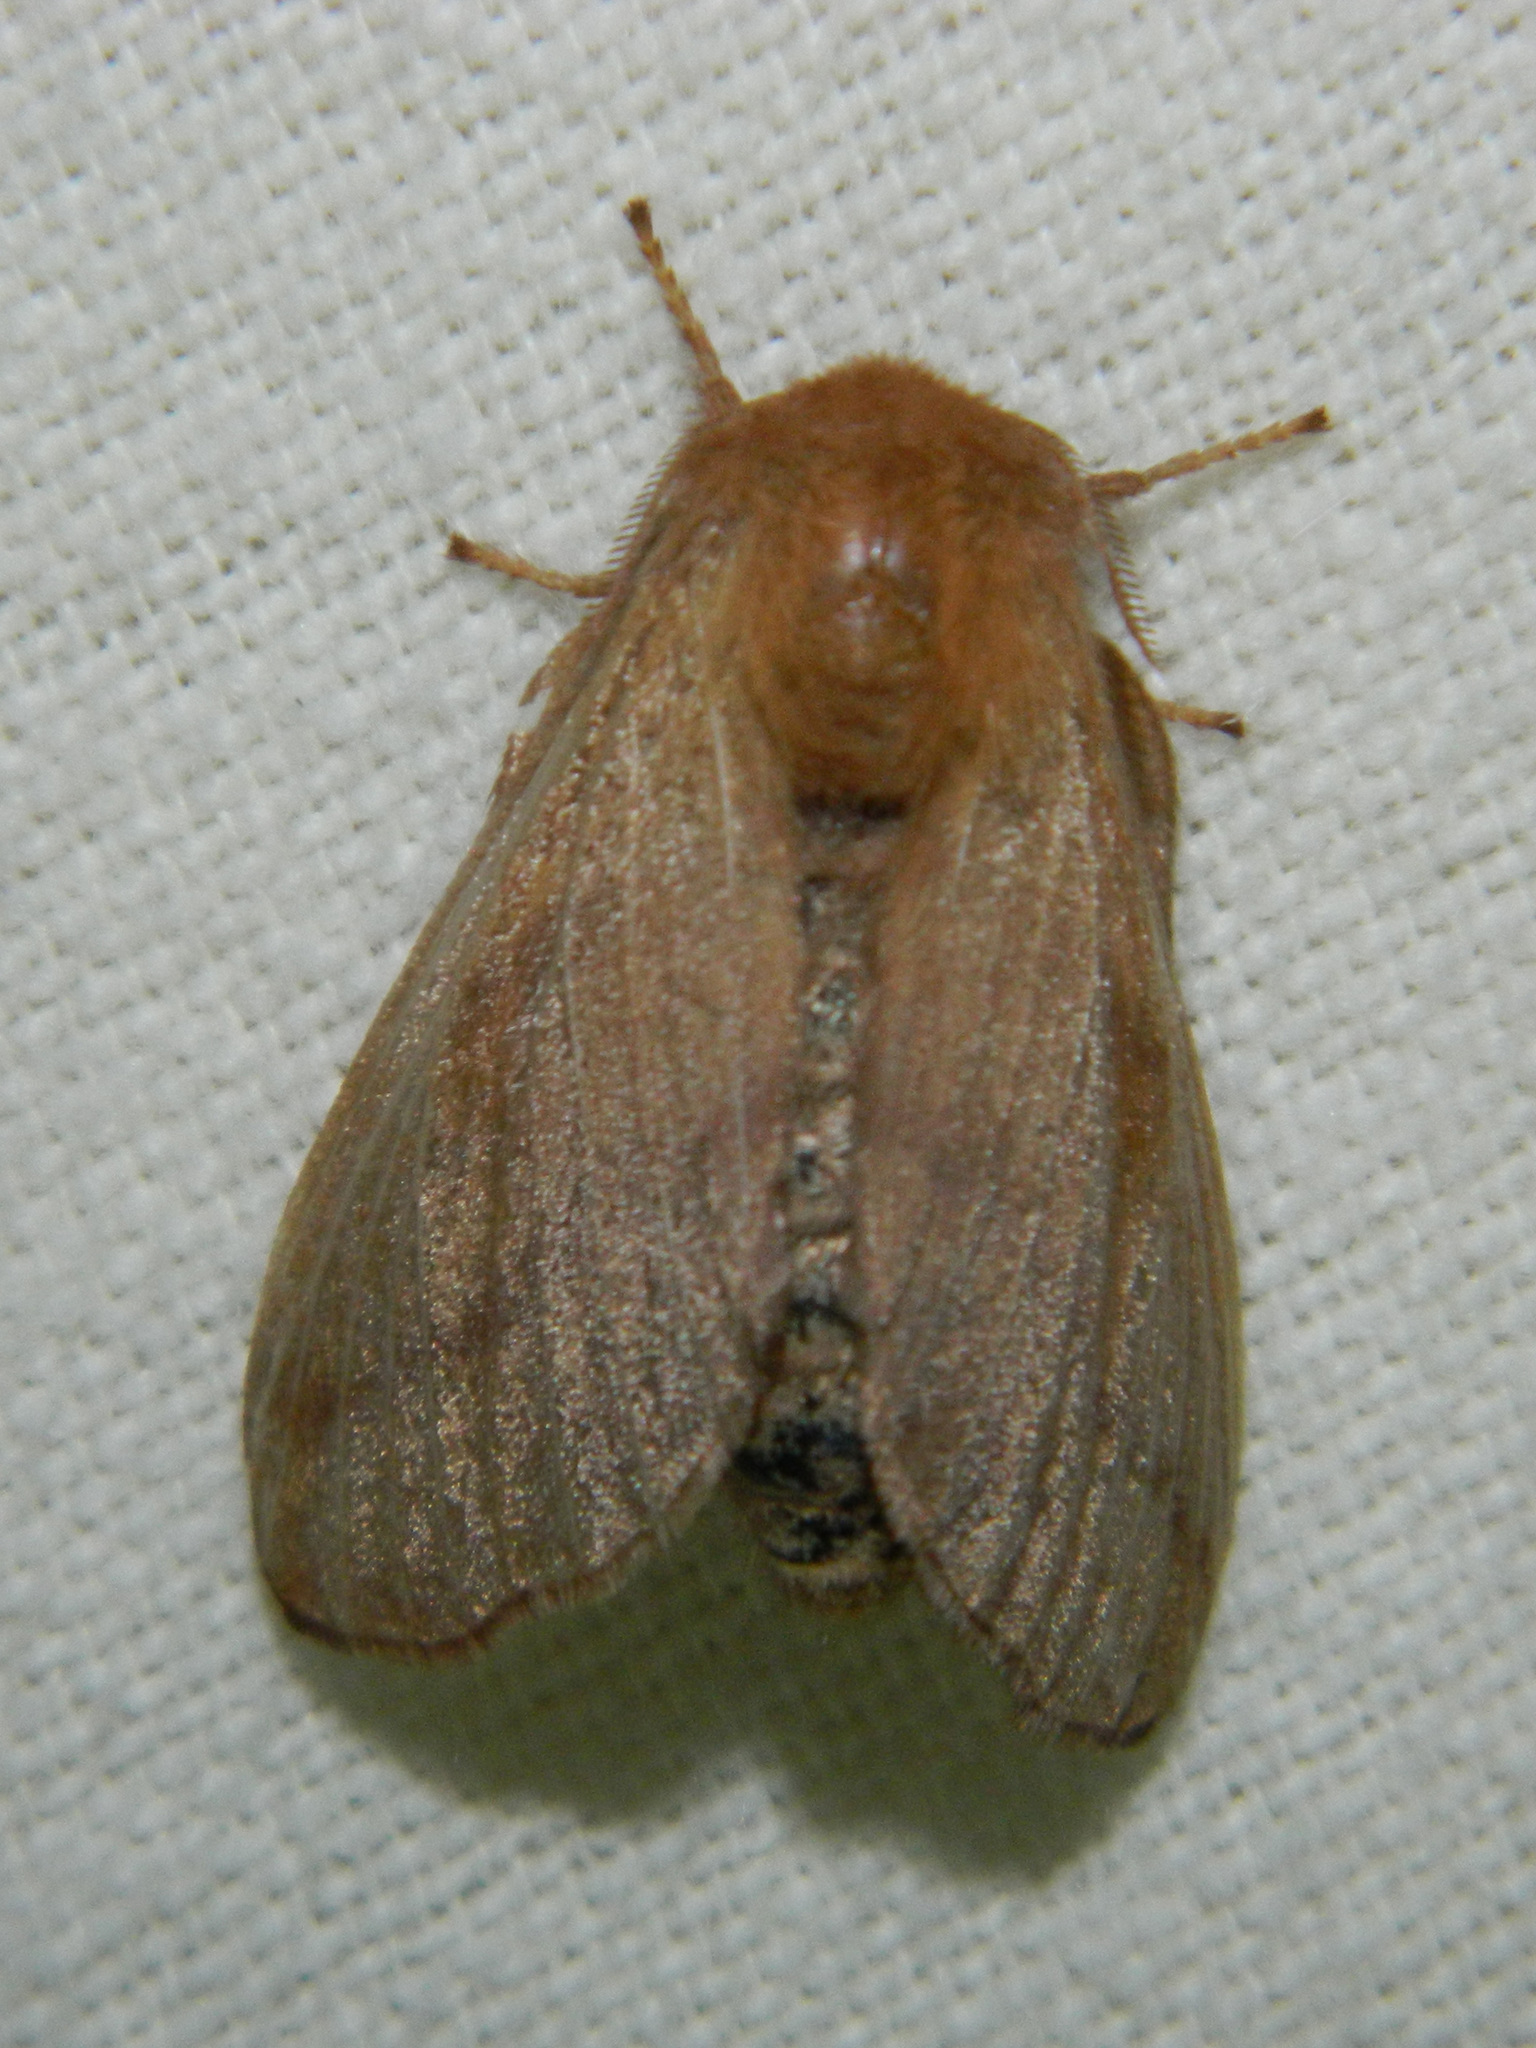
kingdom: Animalia
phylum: Arthropoda
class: Insecta
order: Lepidoptera
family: Lasiocampidae
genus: Malacosoma
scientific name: Malacosoma disstria
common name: Forest tent caterpillar
